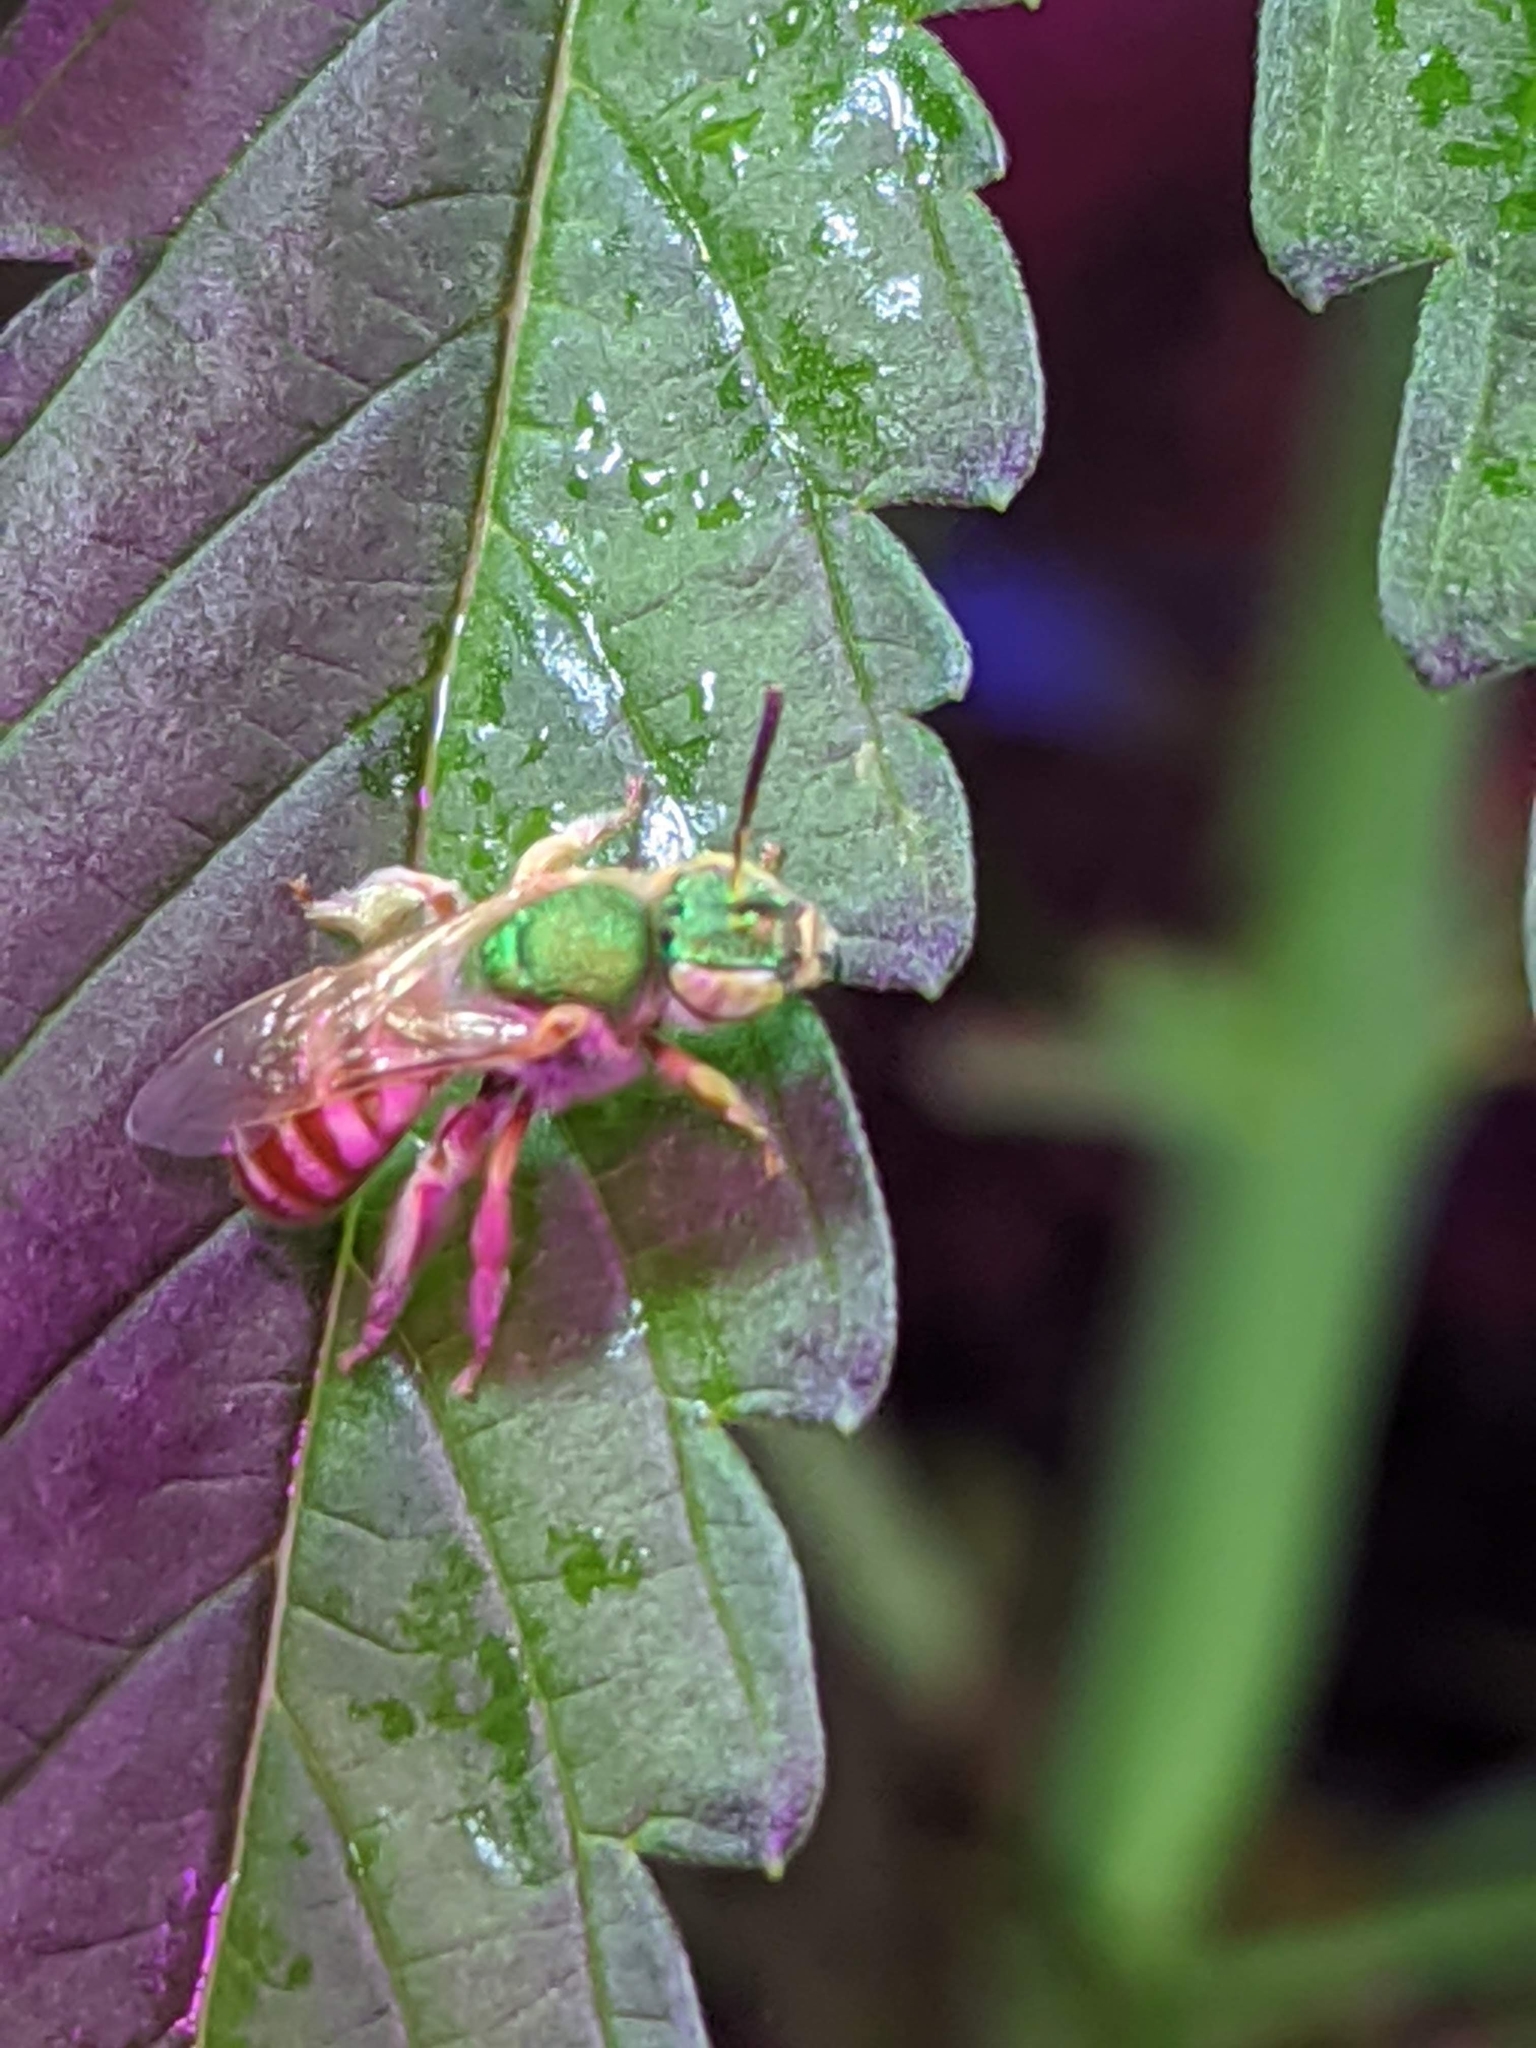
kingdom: Animalia
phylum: Arthropoda
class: Insecta
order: Hymenoptera
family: Halictidae
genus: Agapostemon
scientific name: Agapostemon melliventris
